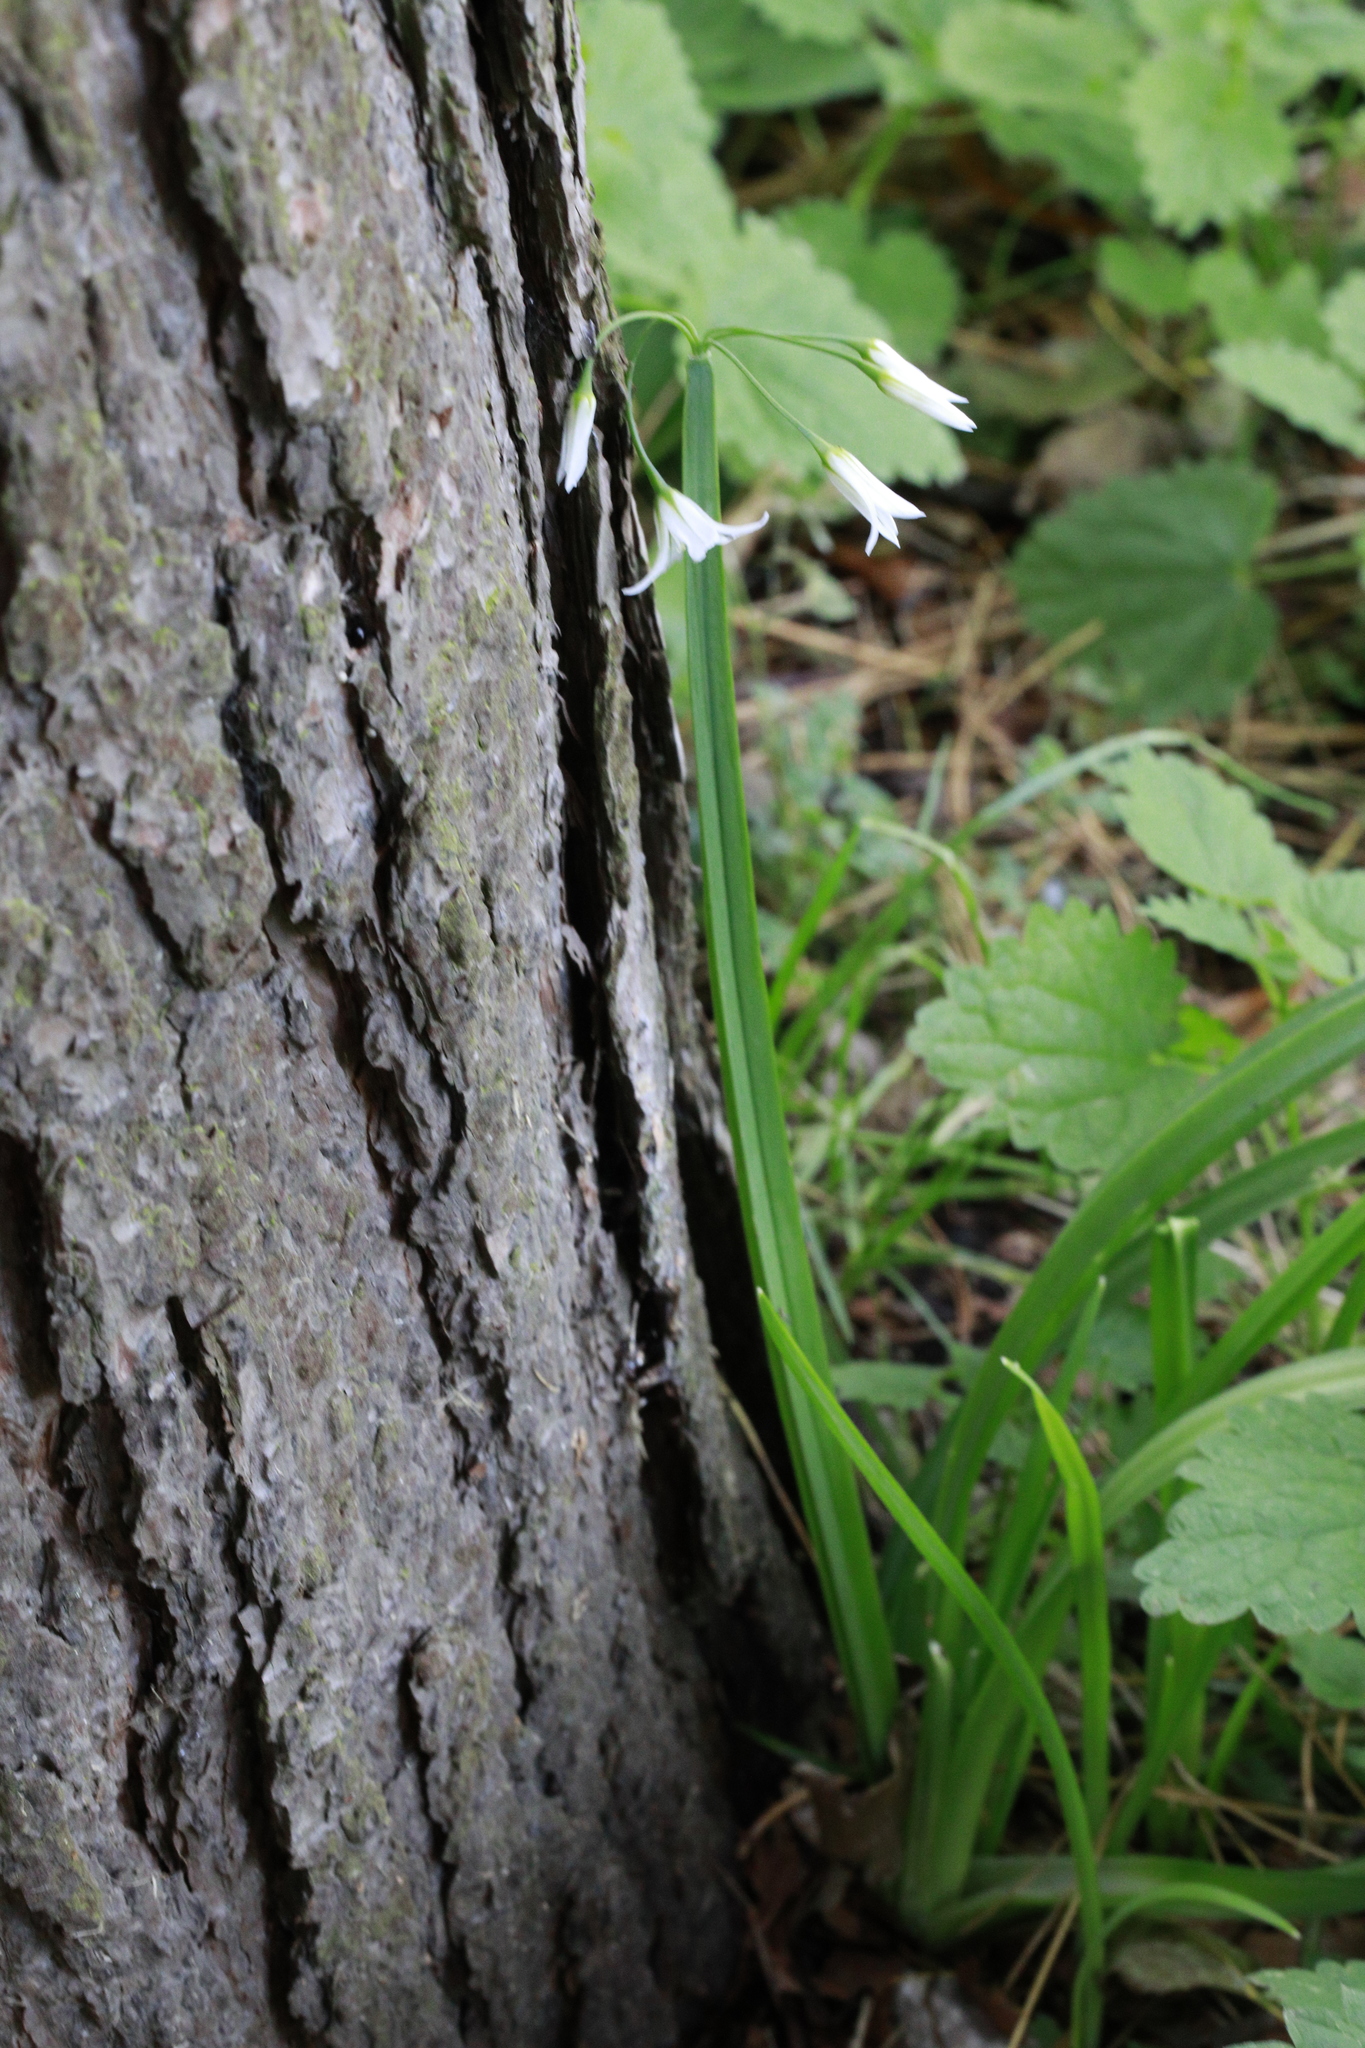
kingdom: Plantae
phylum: Tracheophyta
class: Liliopsida
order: Asparagales
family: Amaryllidaceae
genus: Allium
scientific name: Allium triquetrum
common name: Three-cornered garlic
